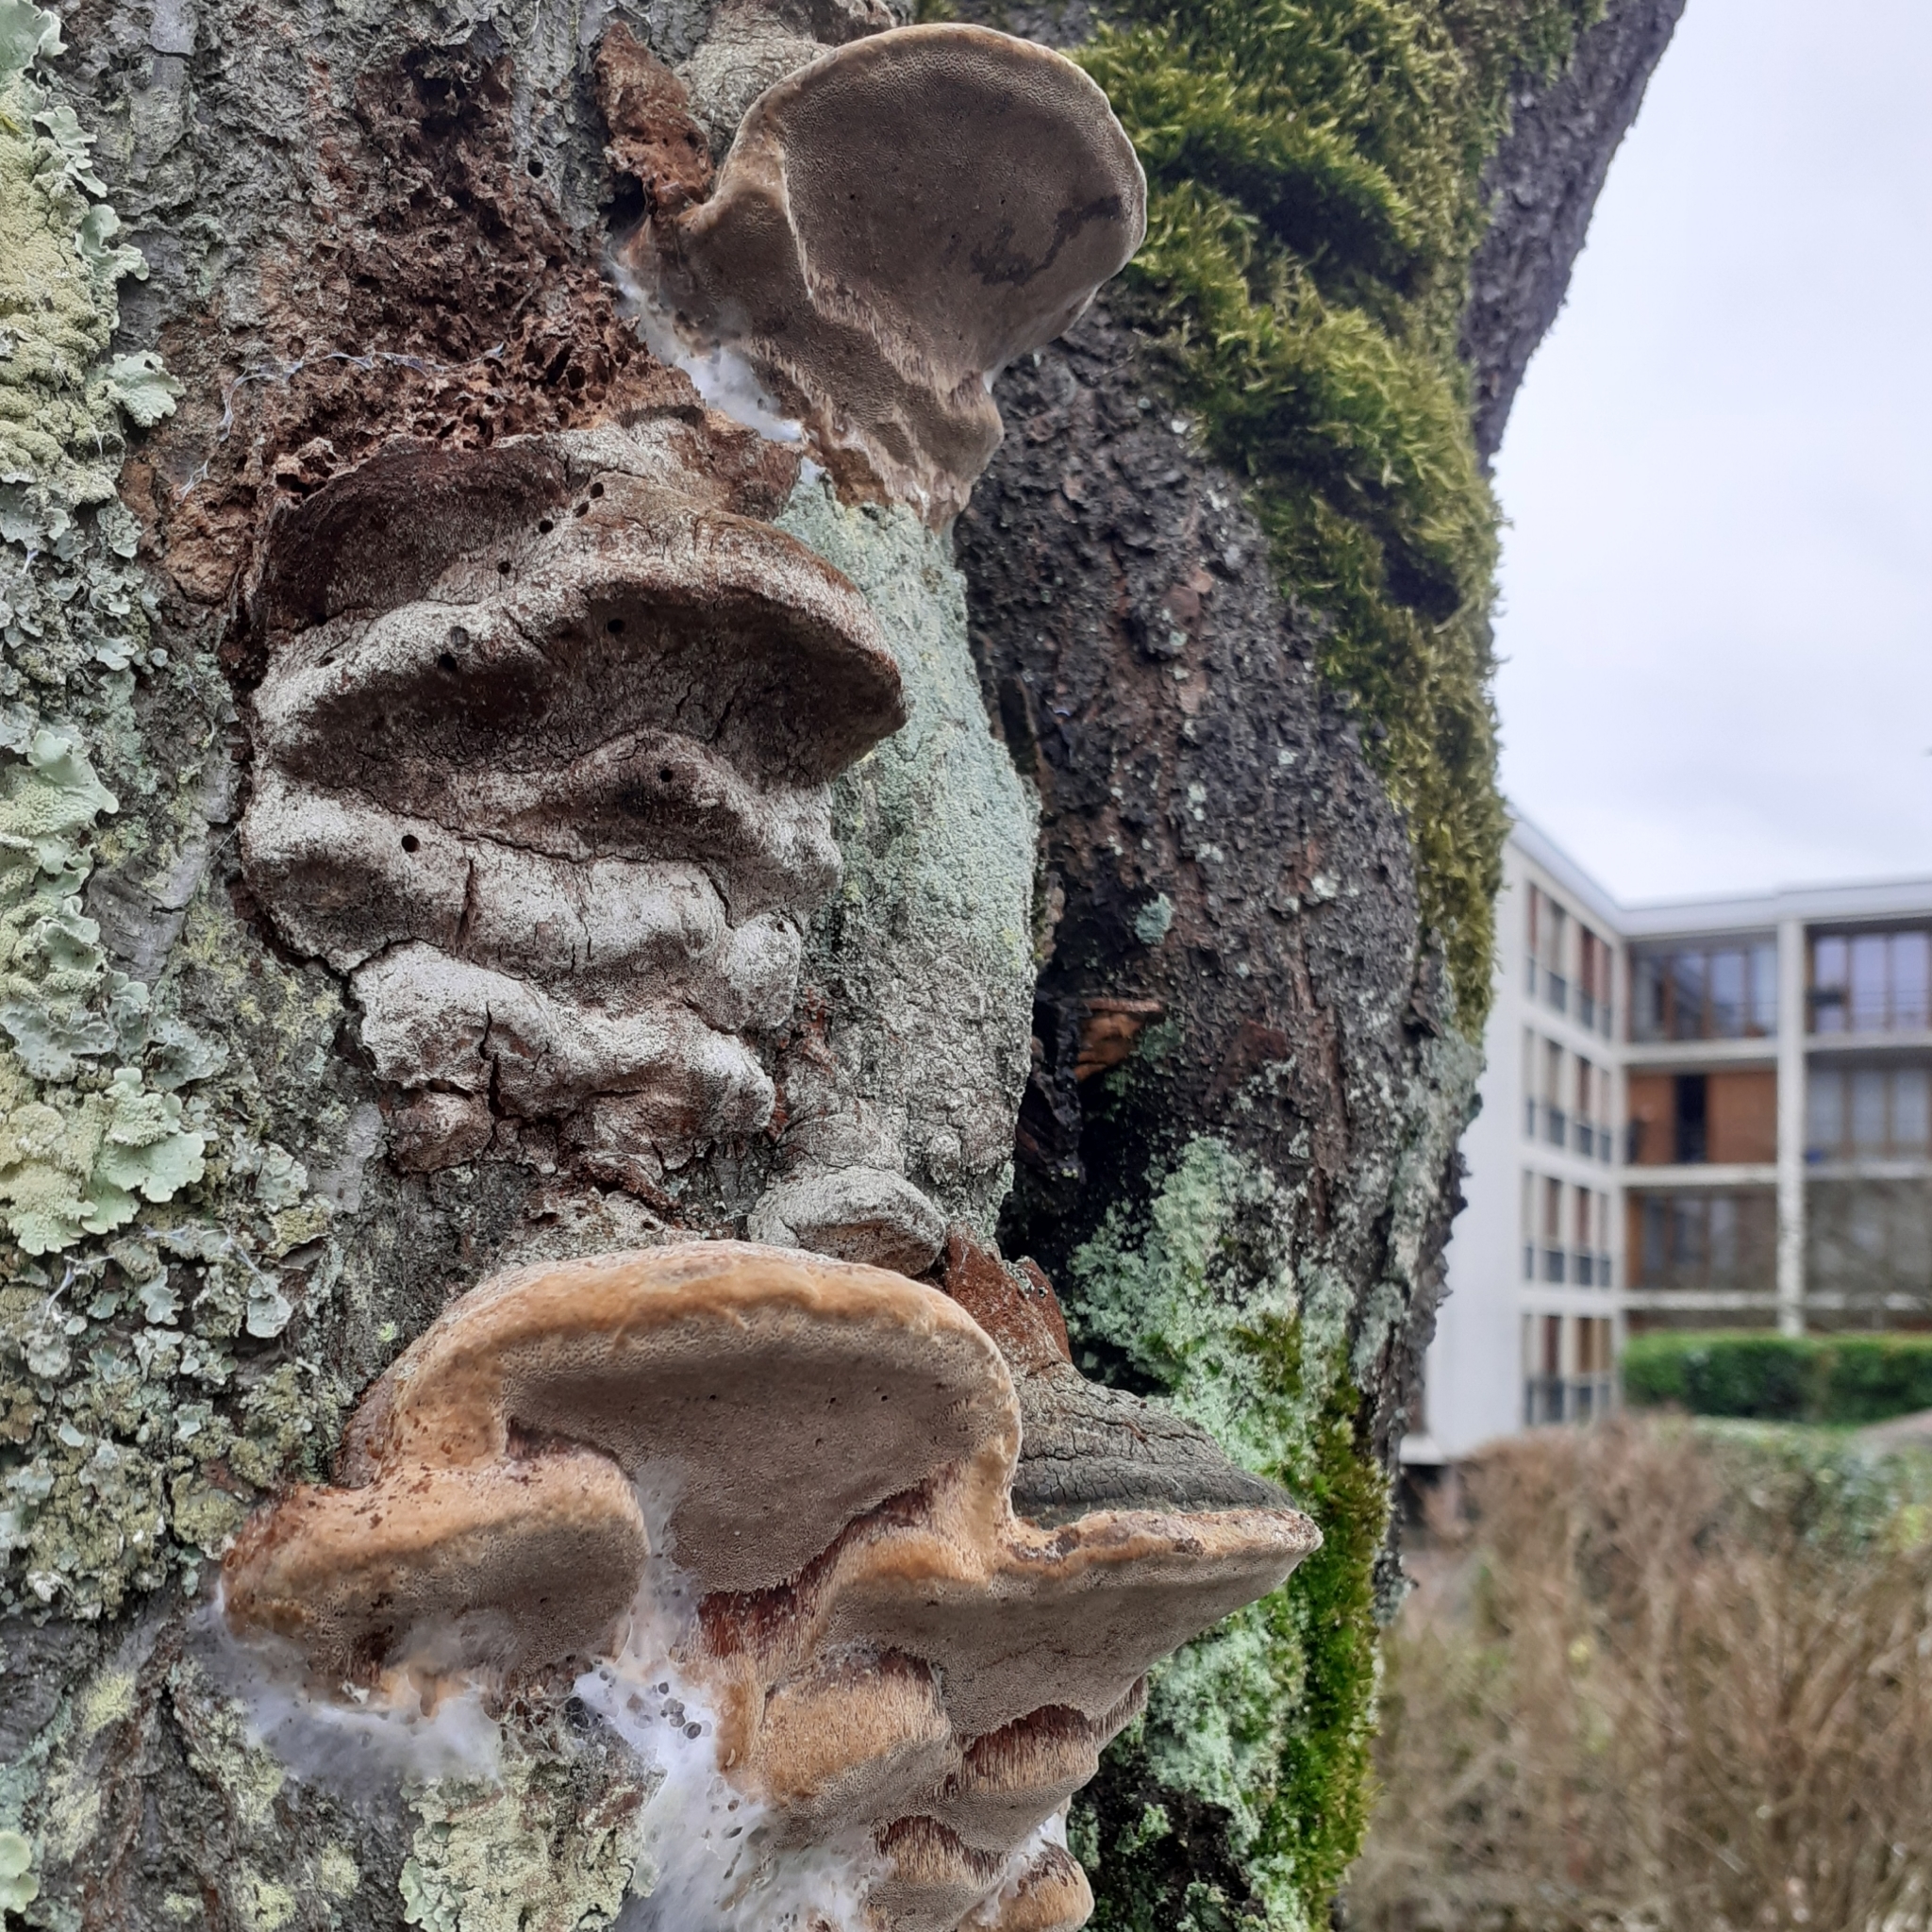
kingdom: Fungi
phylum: Basidiomycota
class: Agaricomycetes
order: Hymenochaetales
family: Hymenochaetaceae
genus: Phellinus
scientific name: Phellinus pomaceus
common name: Cushion bracket
